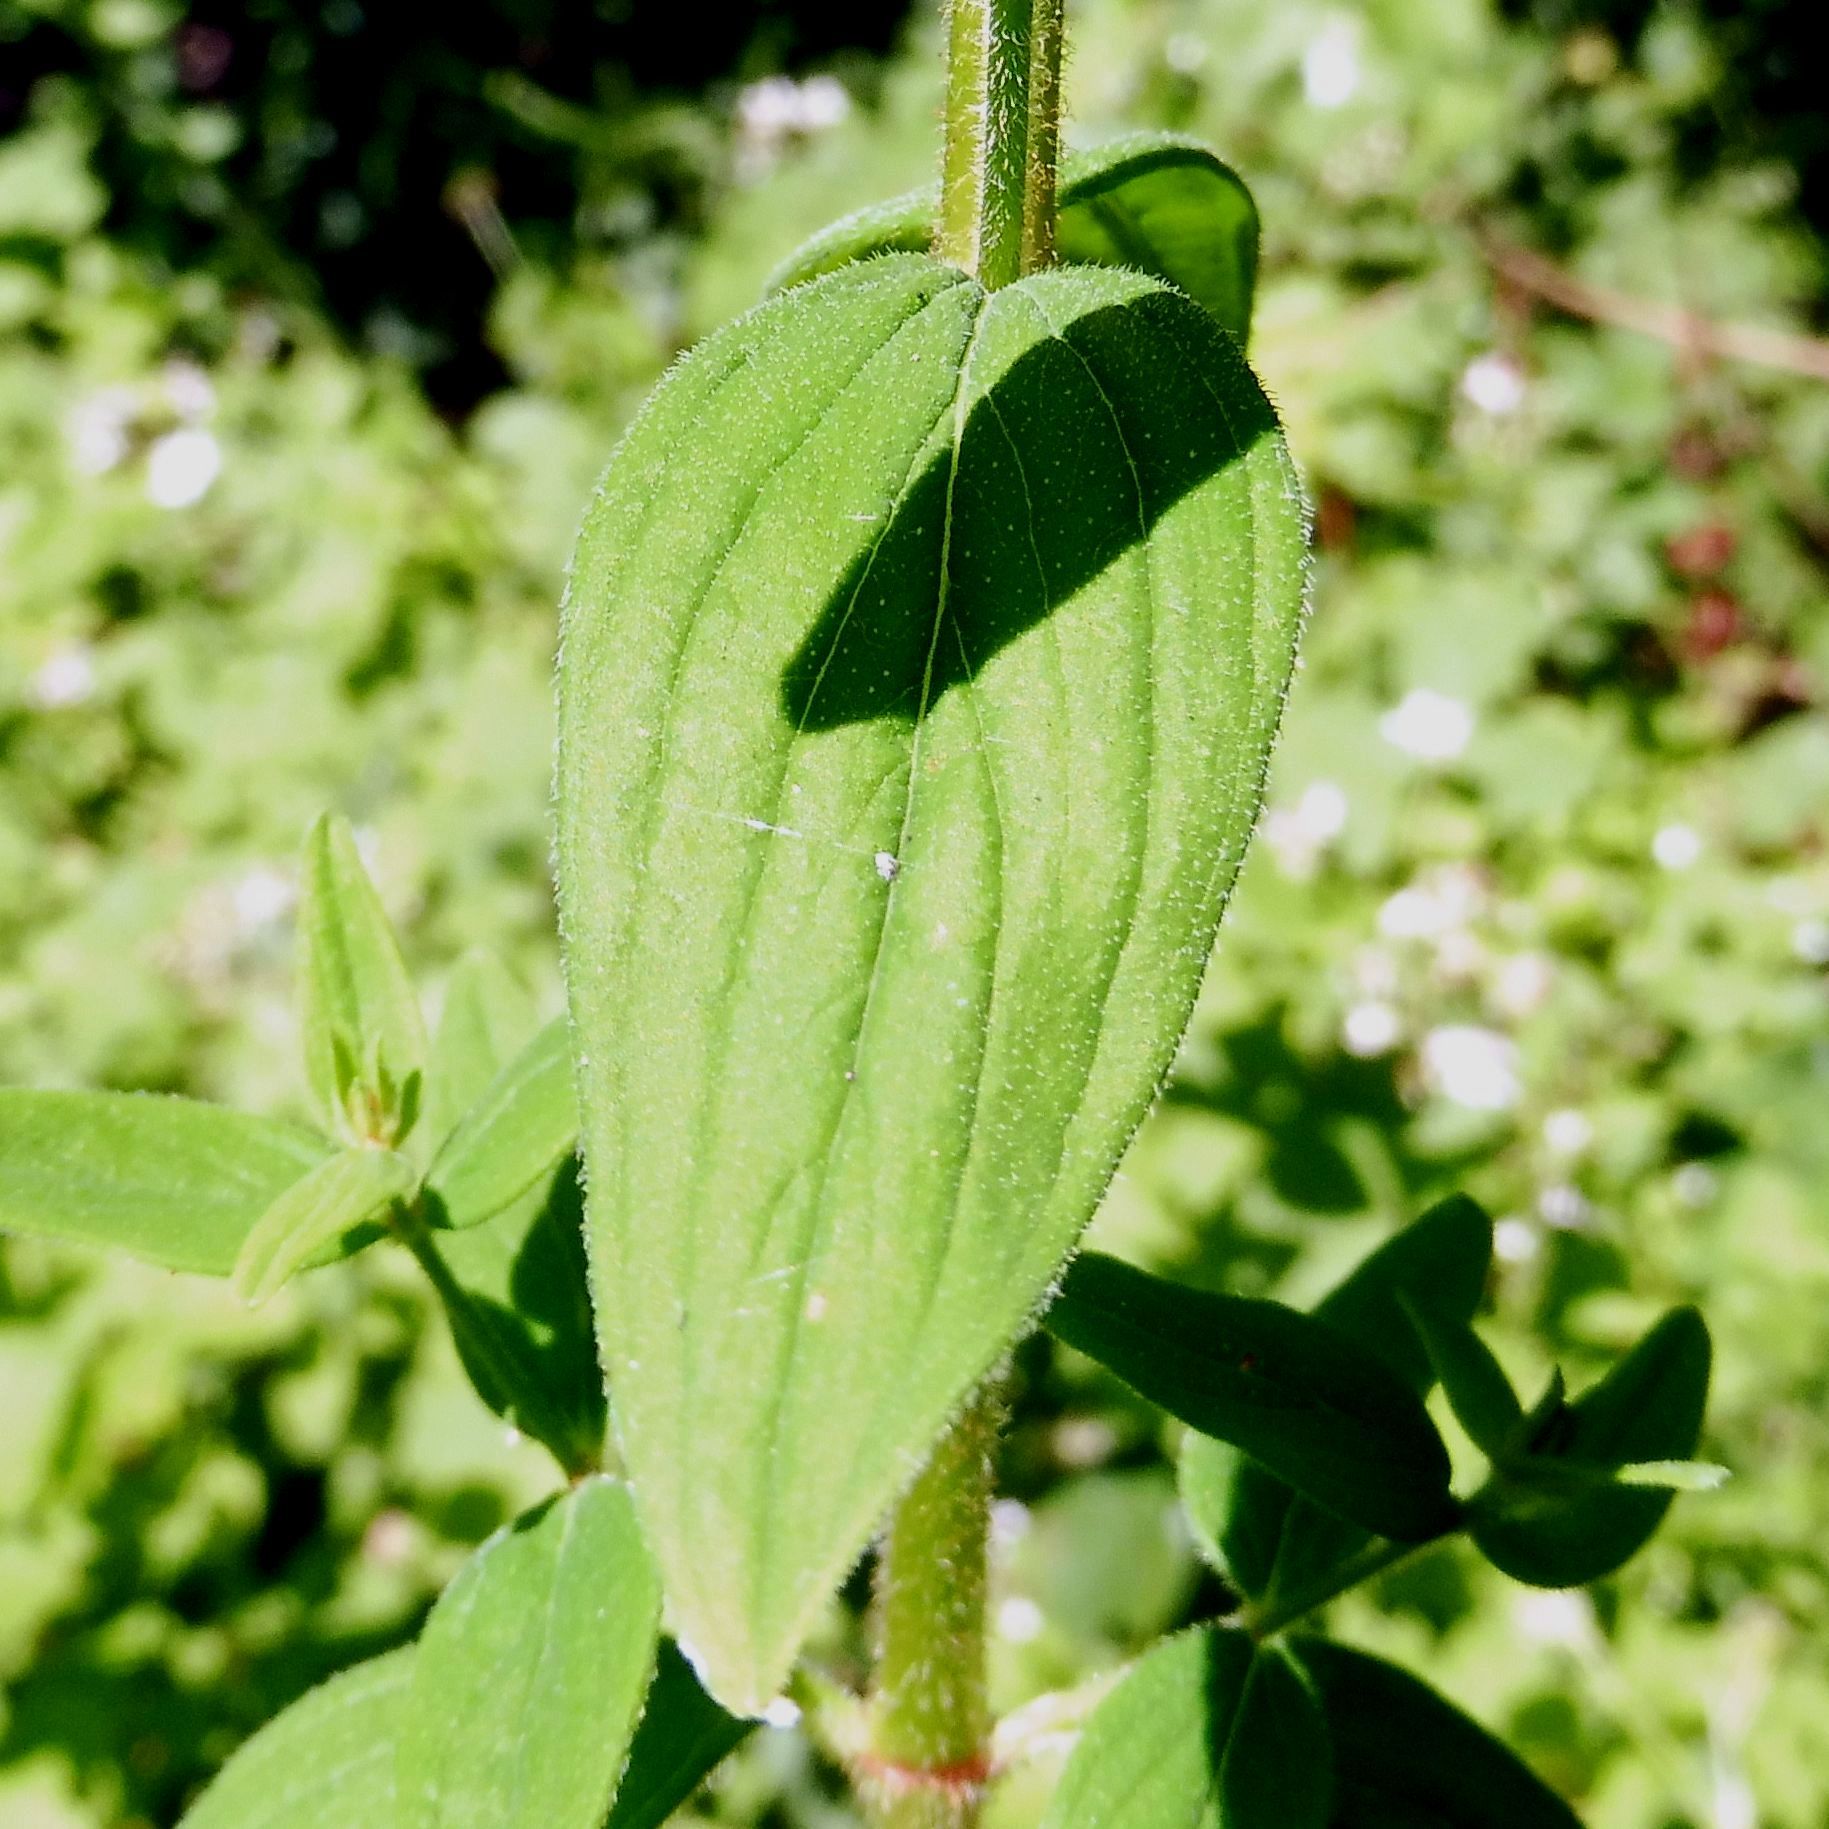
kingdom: Plantae
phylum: Tracheophyta
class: Magnoliopsida
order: Malpighiales
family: Hypericaceae
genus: Hypericum
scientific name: Hypericum hirsutum
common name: Hairy st. john's-wort
